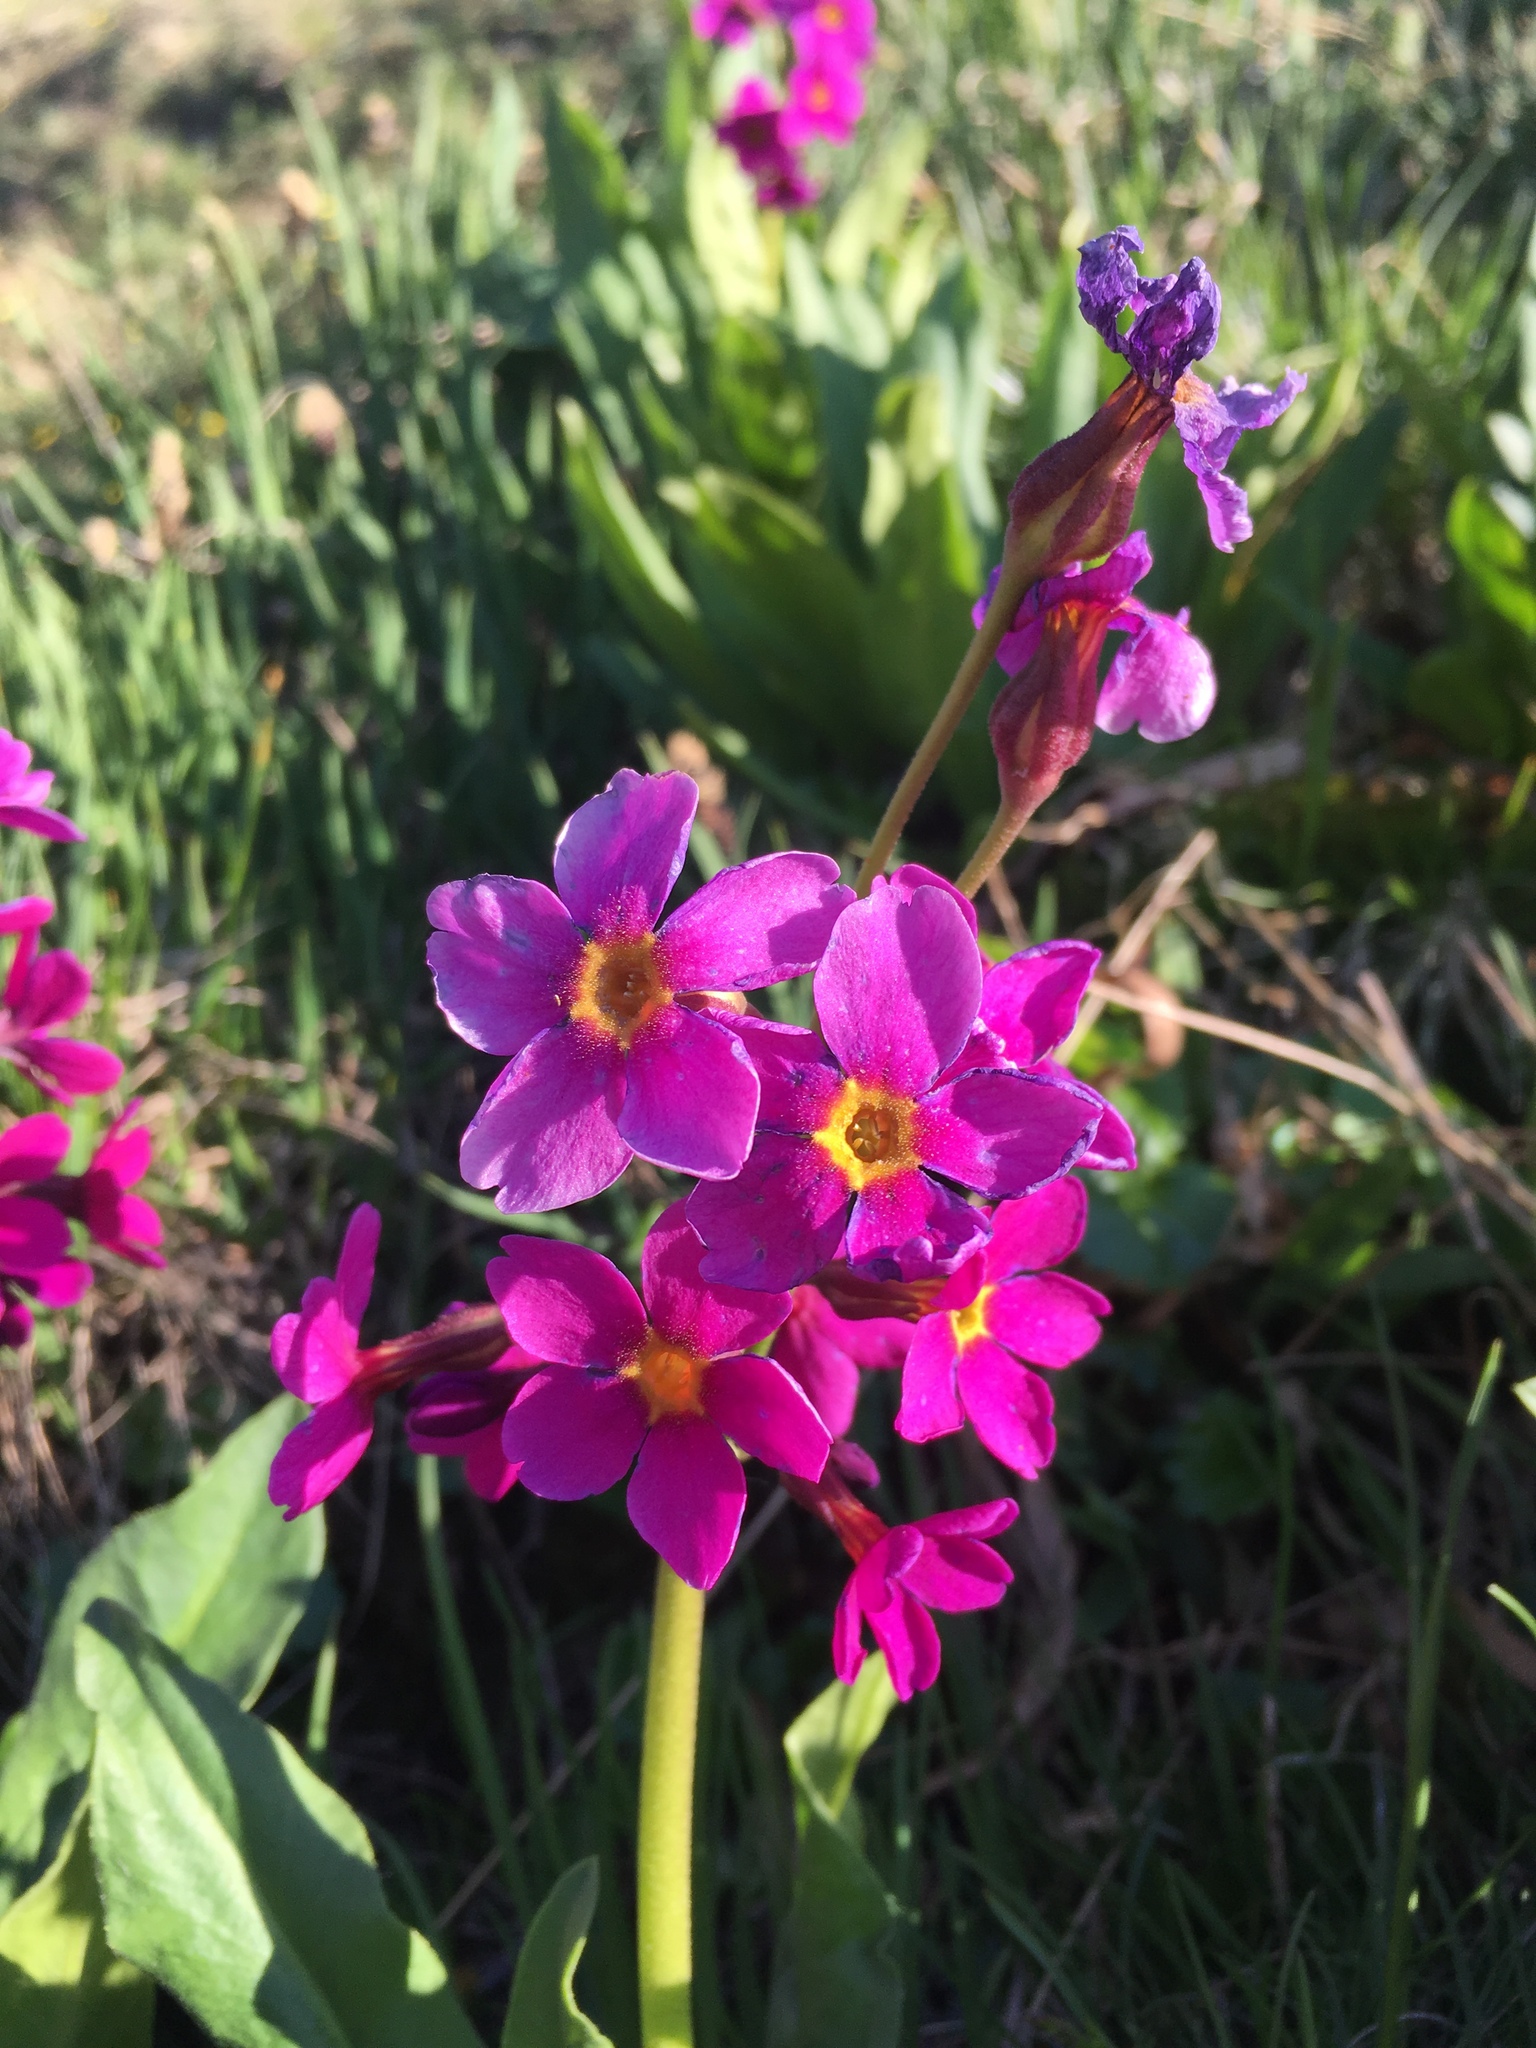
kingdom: Plantae
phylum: Tracheophyta
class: Magnoliopsida
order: Ericales
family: Primulaceae
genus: Primula
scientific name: Primula parryi
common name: Parry's primrose
